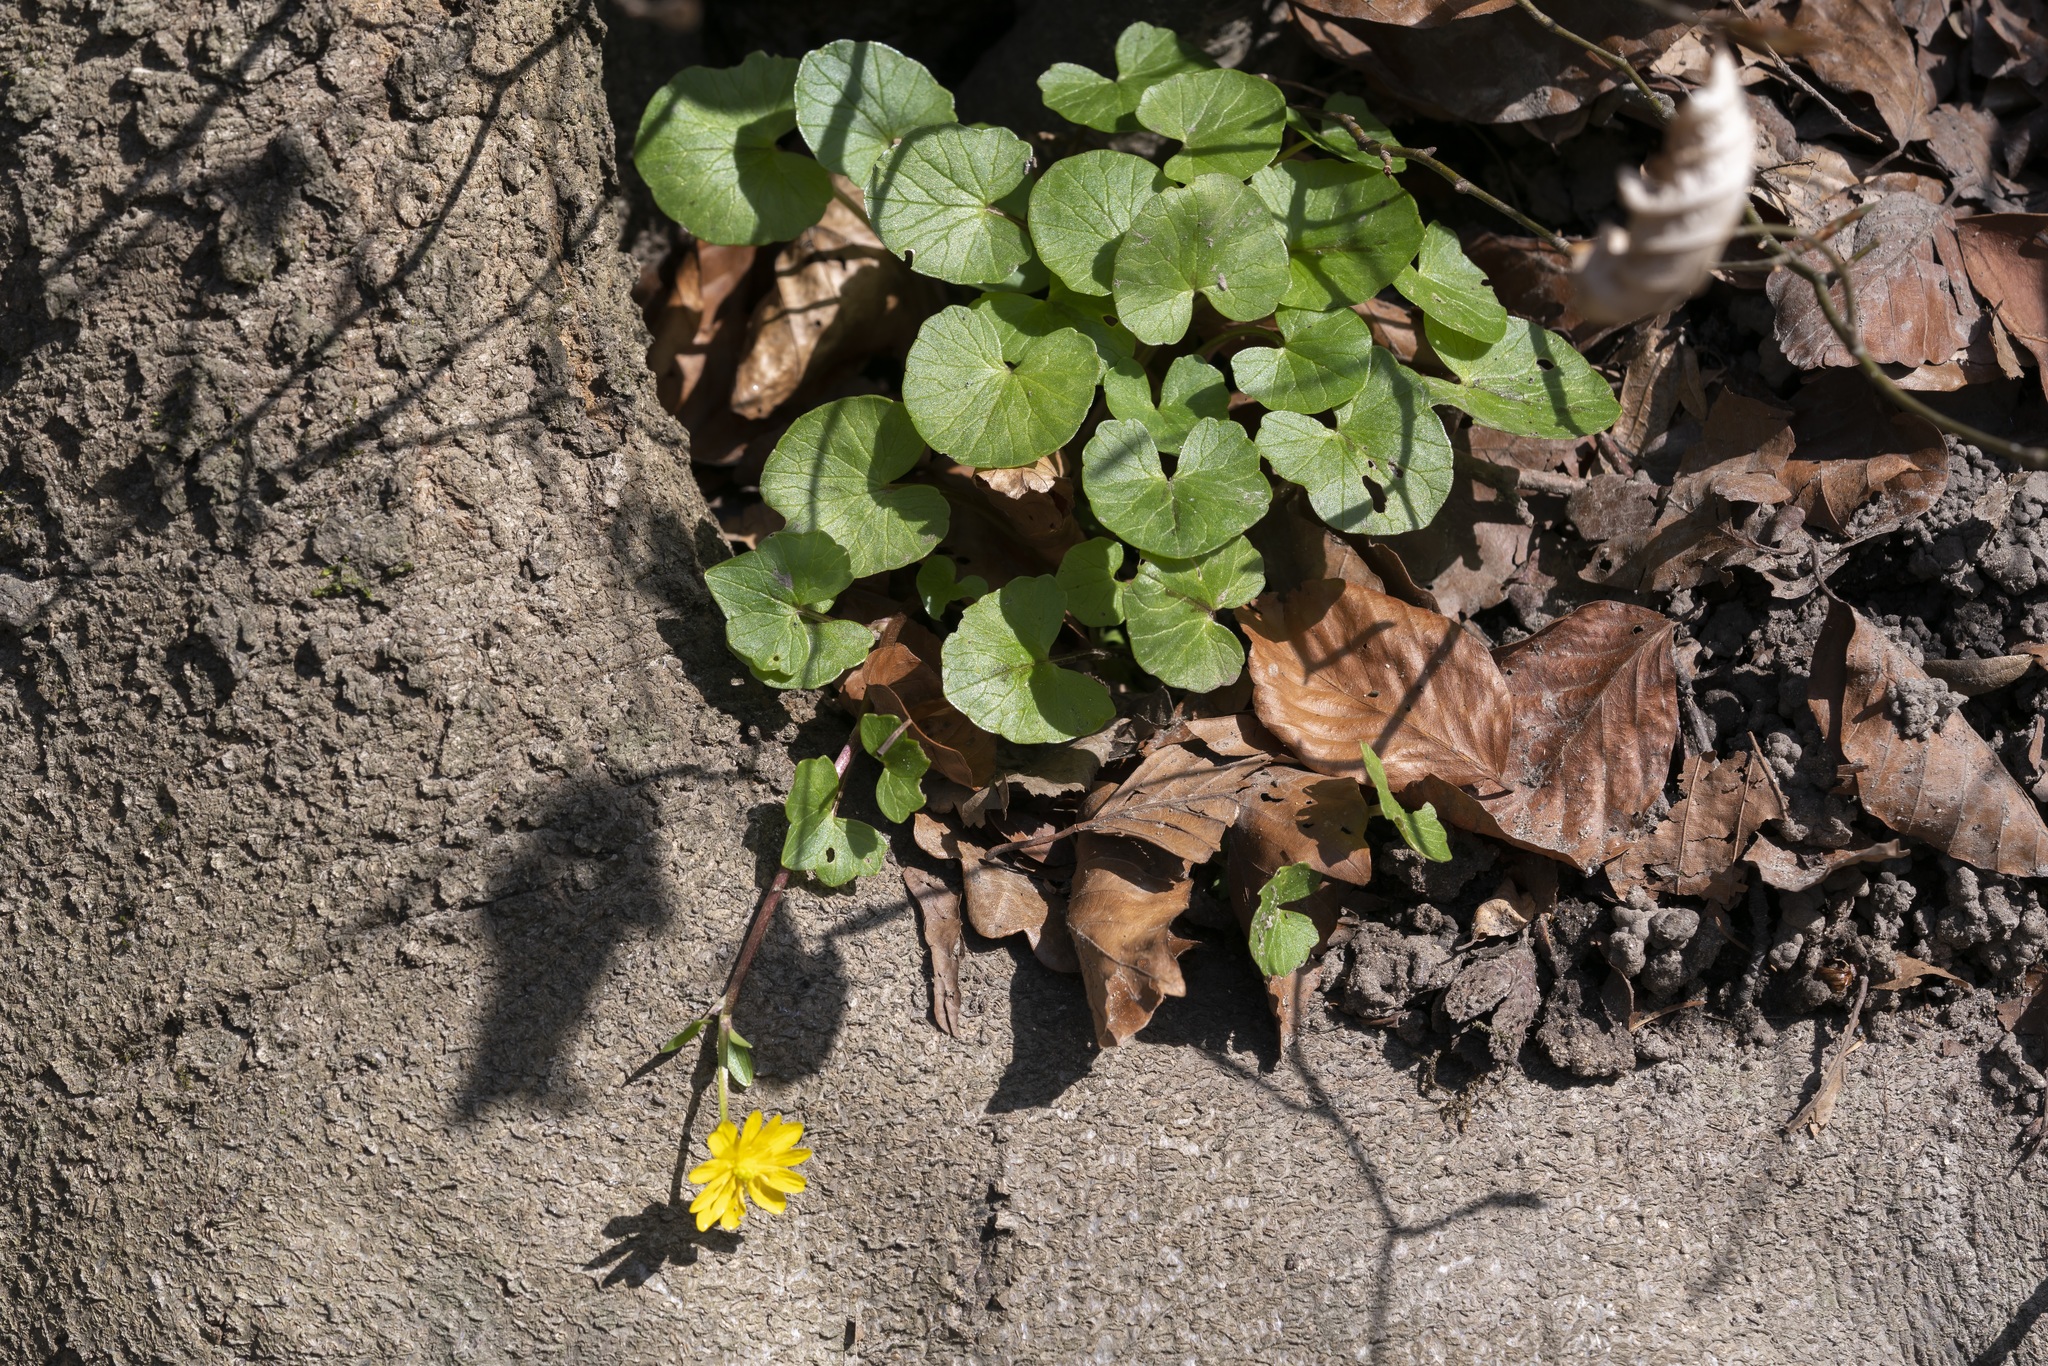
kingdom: Plantae
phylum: Tracheophyta
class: Magnoliopsida
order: Ranunculales
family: Ranunculaceae
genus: Ficaria
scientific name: Ficaria verna
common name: Lesser celandine
